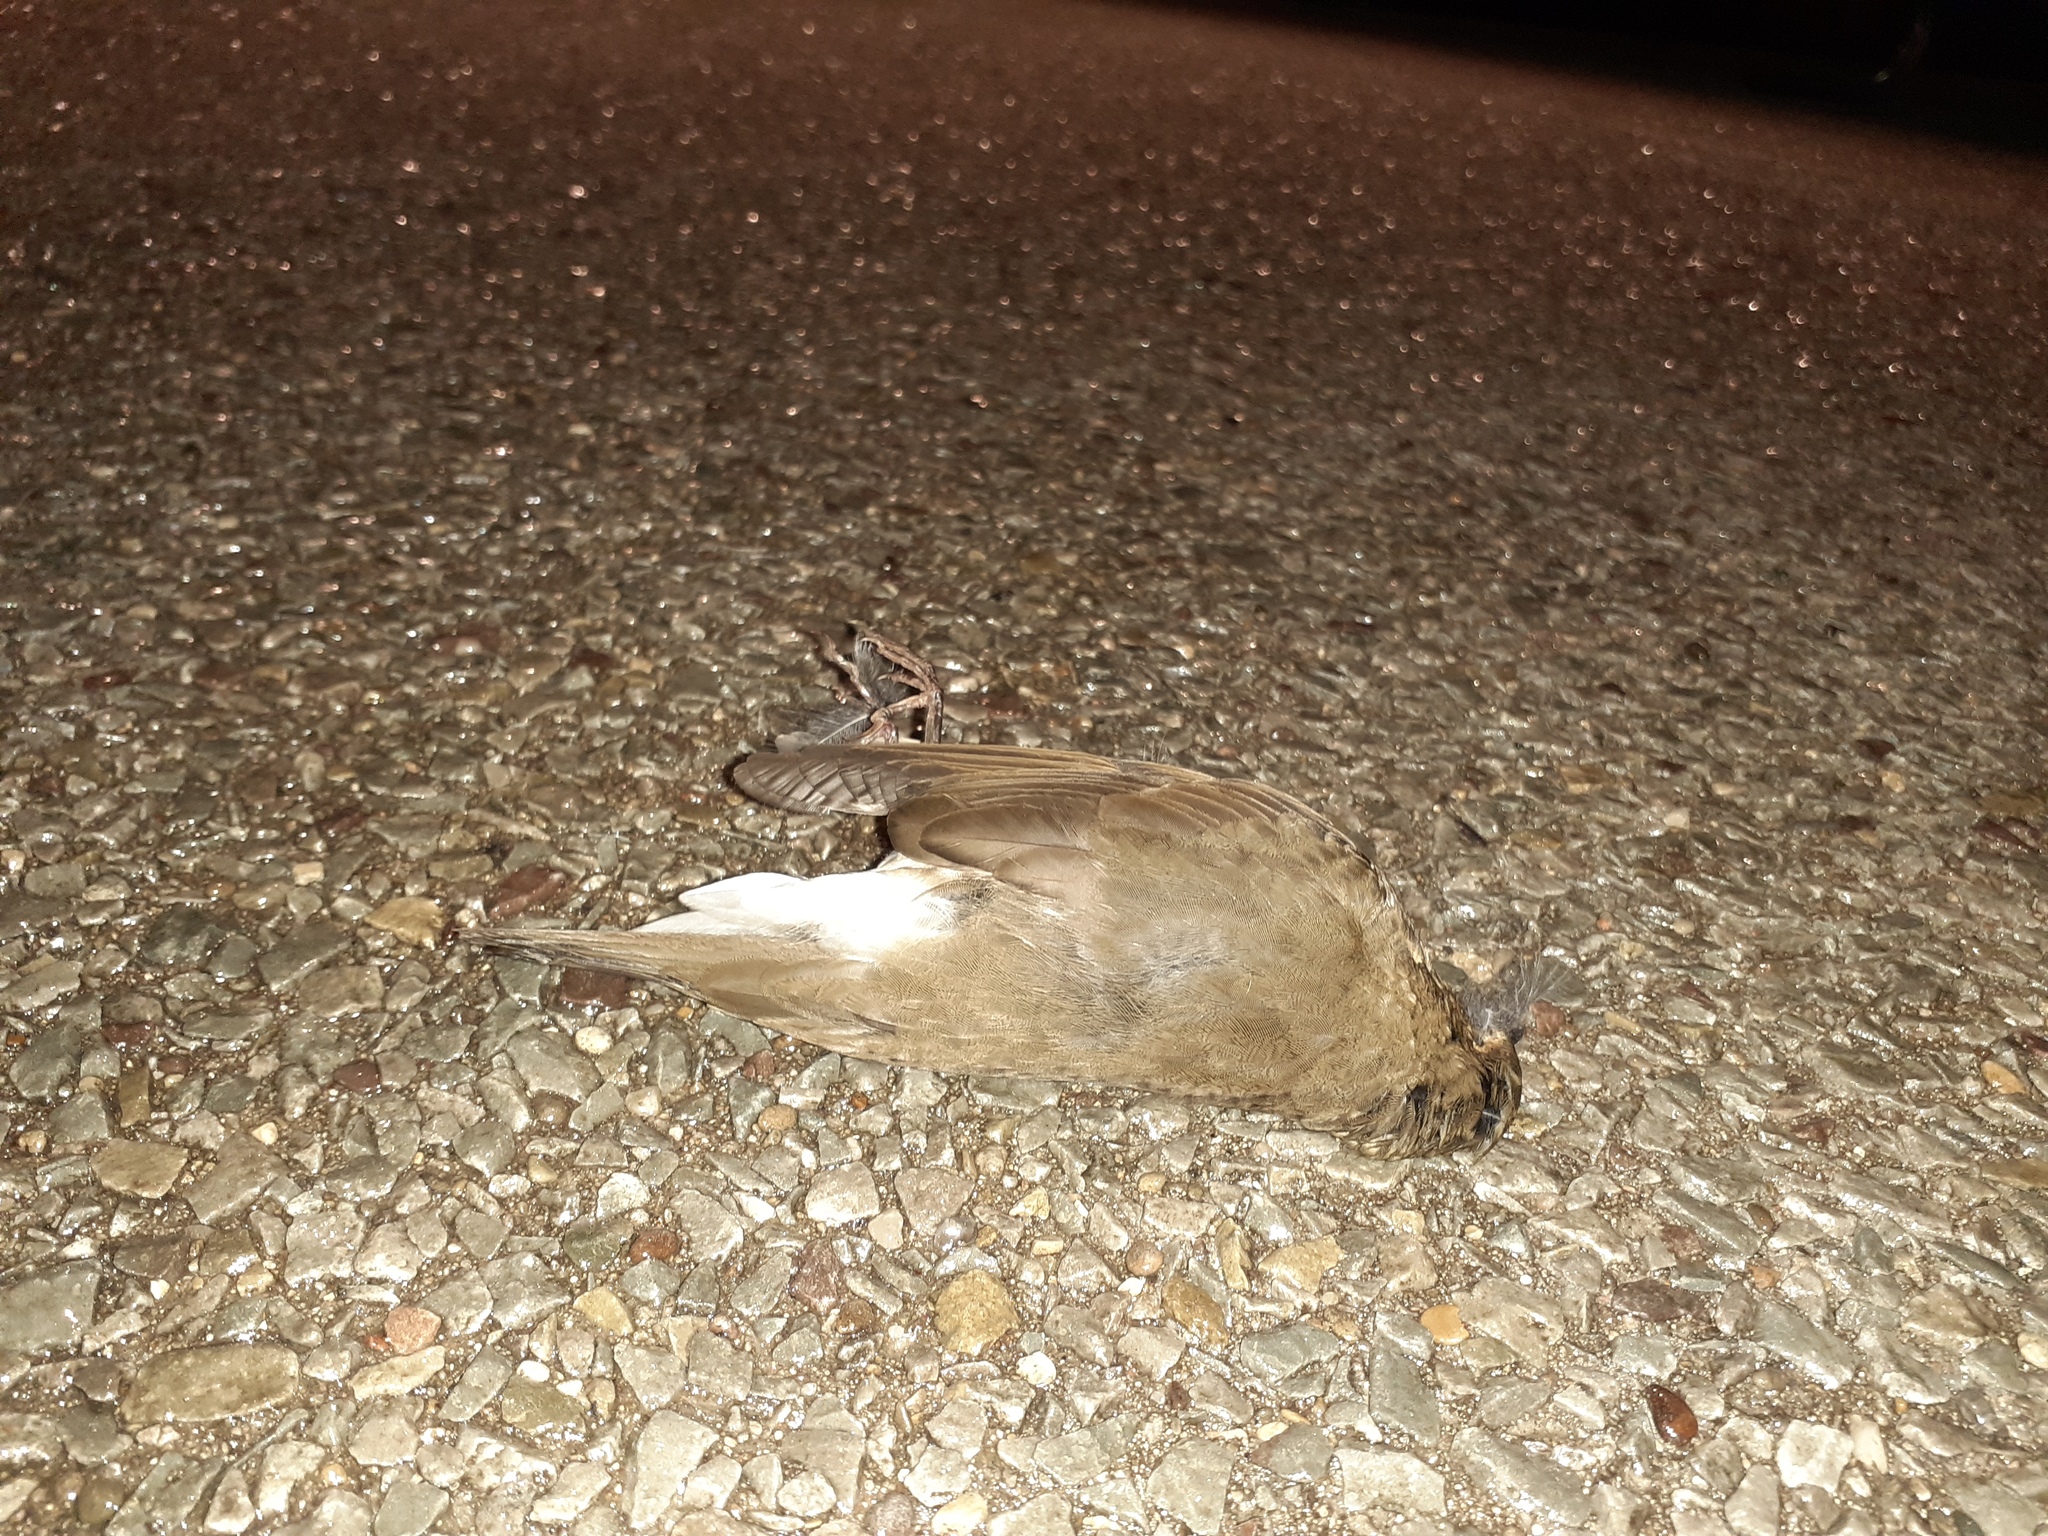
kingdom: Animalia
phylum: Chordata
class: Aves
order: Passeriformes
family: Turdidae
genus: Catharus
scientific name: Catharus ustulatus
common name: Swainson's thrush
